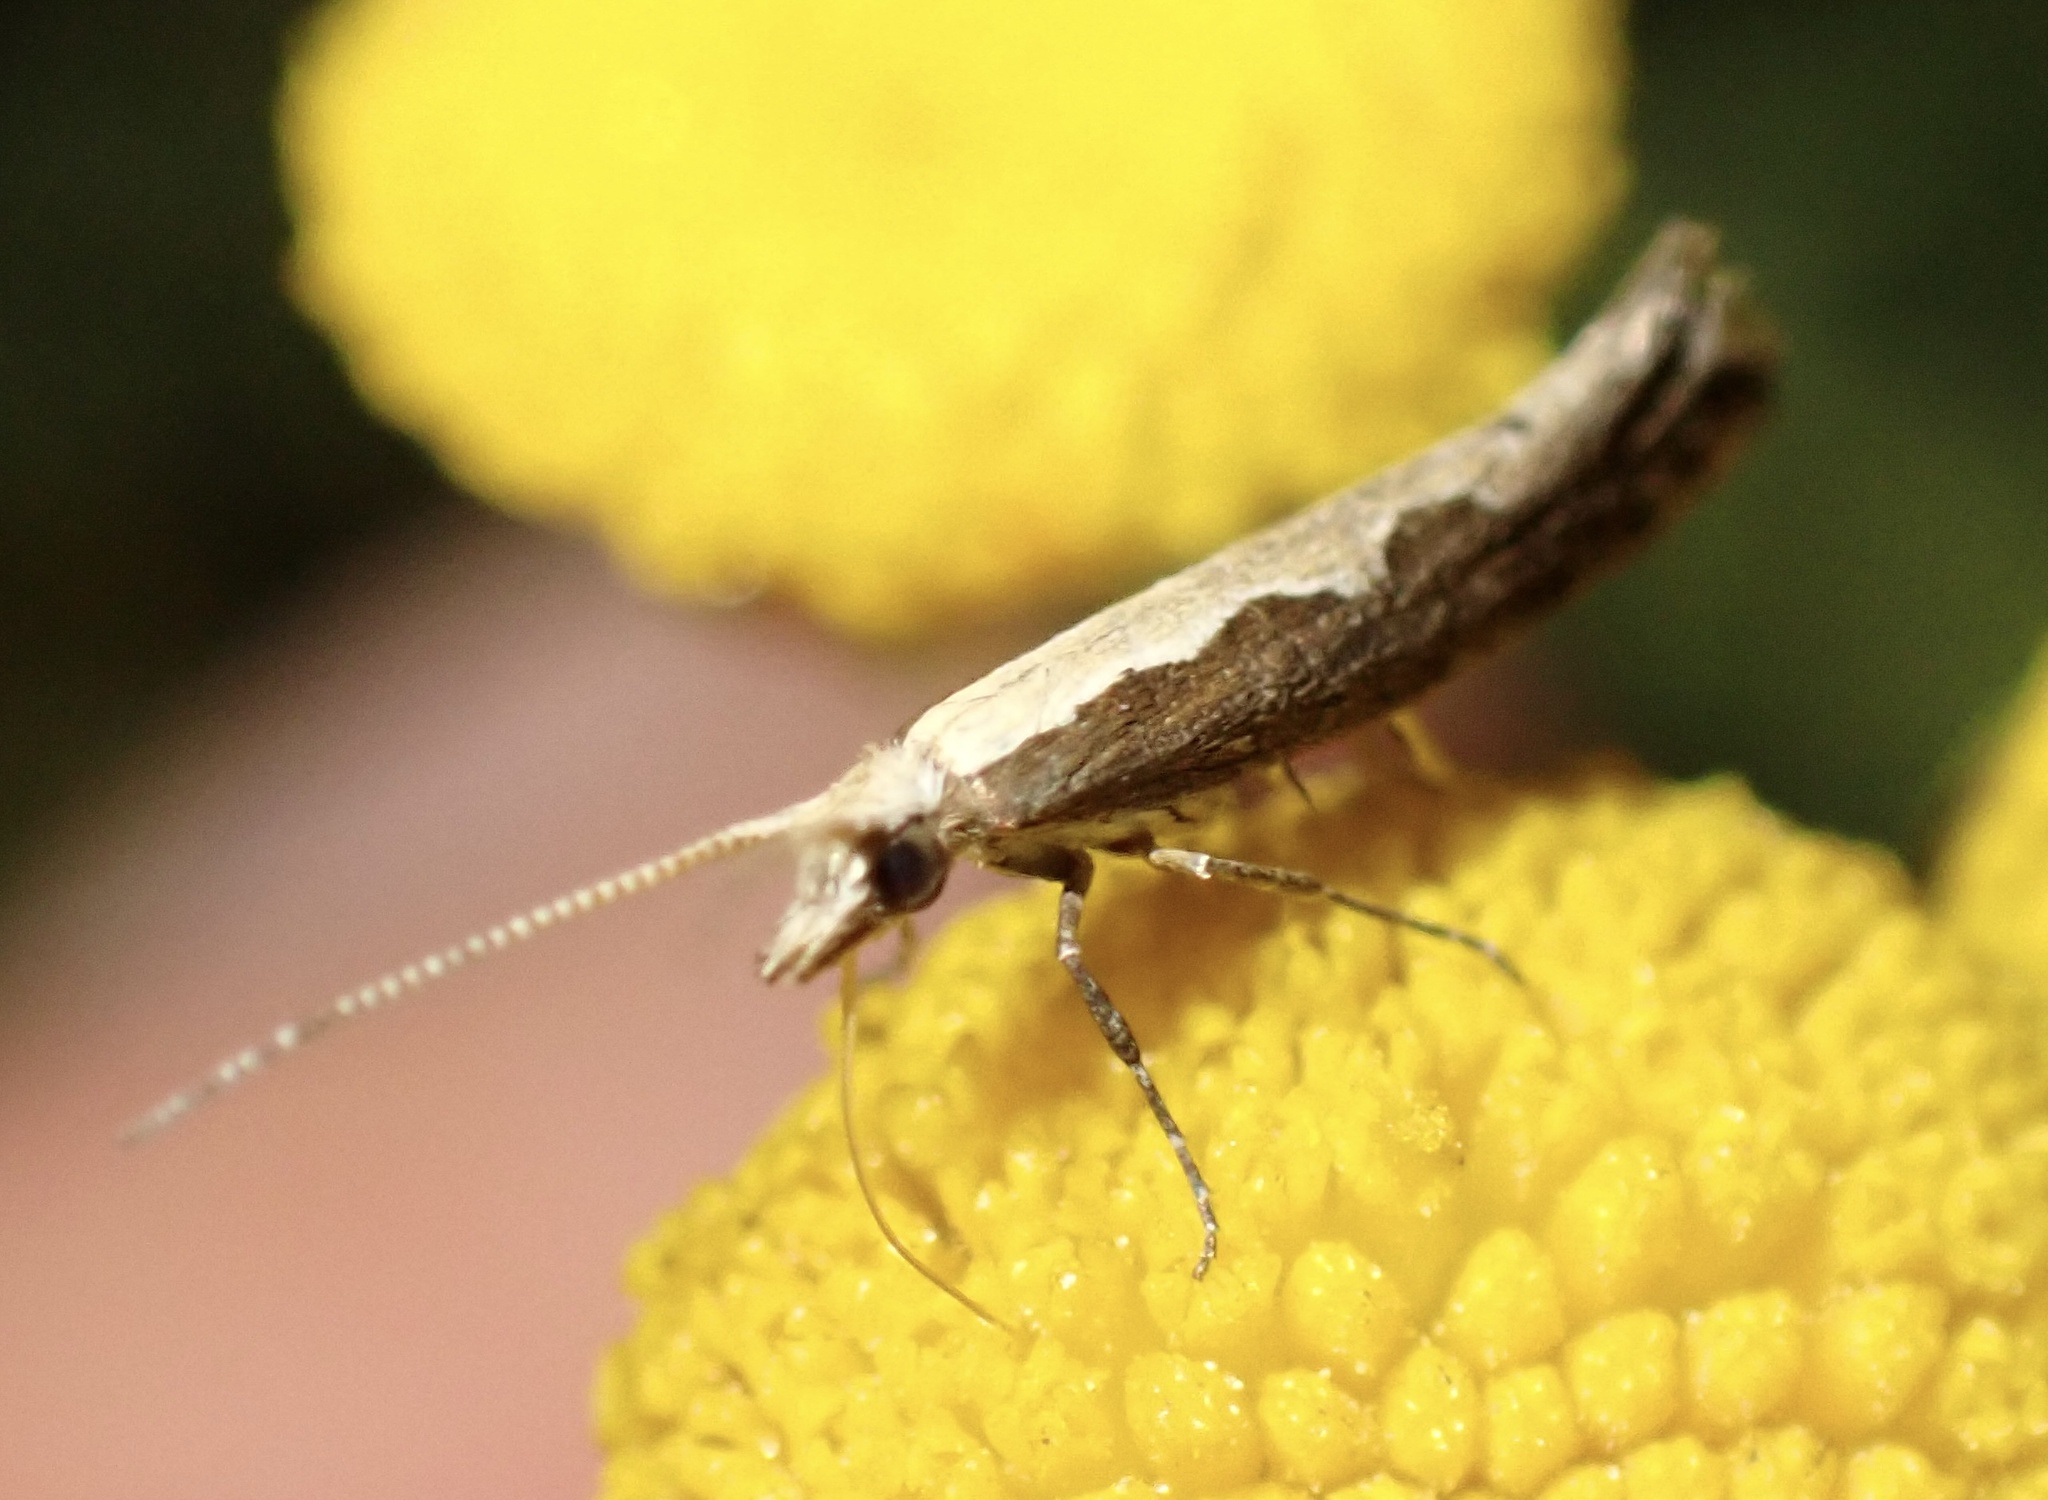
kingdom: Animalia
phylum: Arthropoda
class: Insecta
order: Lepidoptera
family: Plutellidae
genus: Plutella
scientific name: Plutella xylostella
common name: Diamond-back moth
